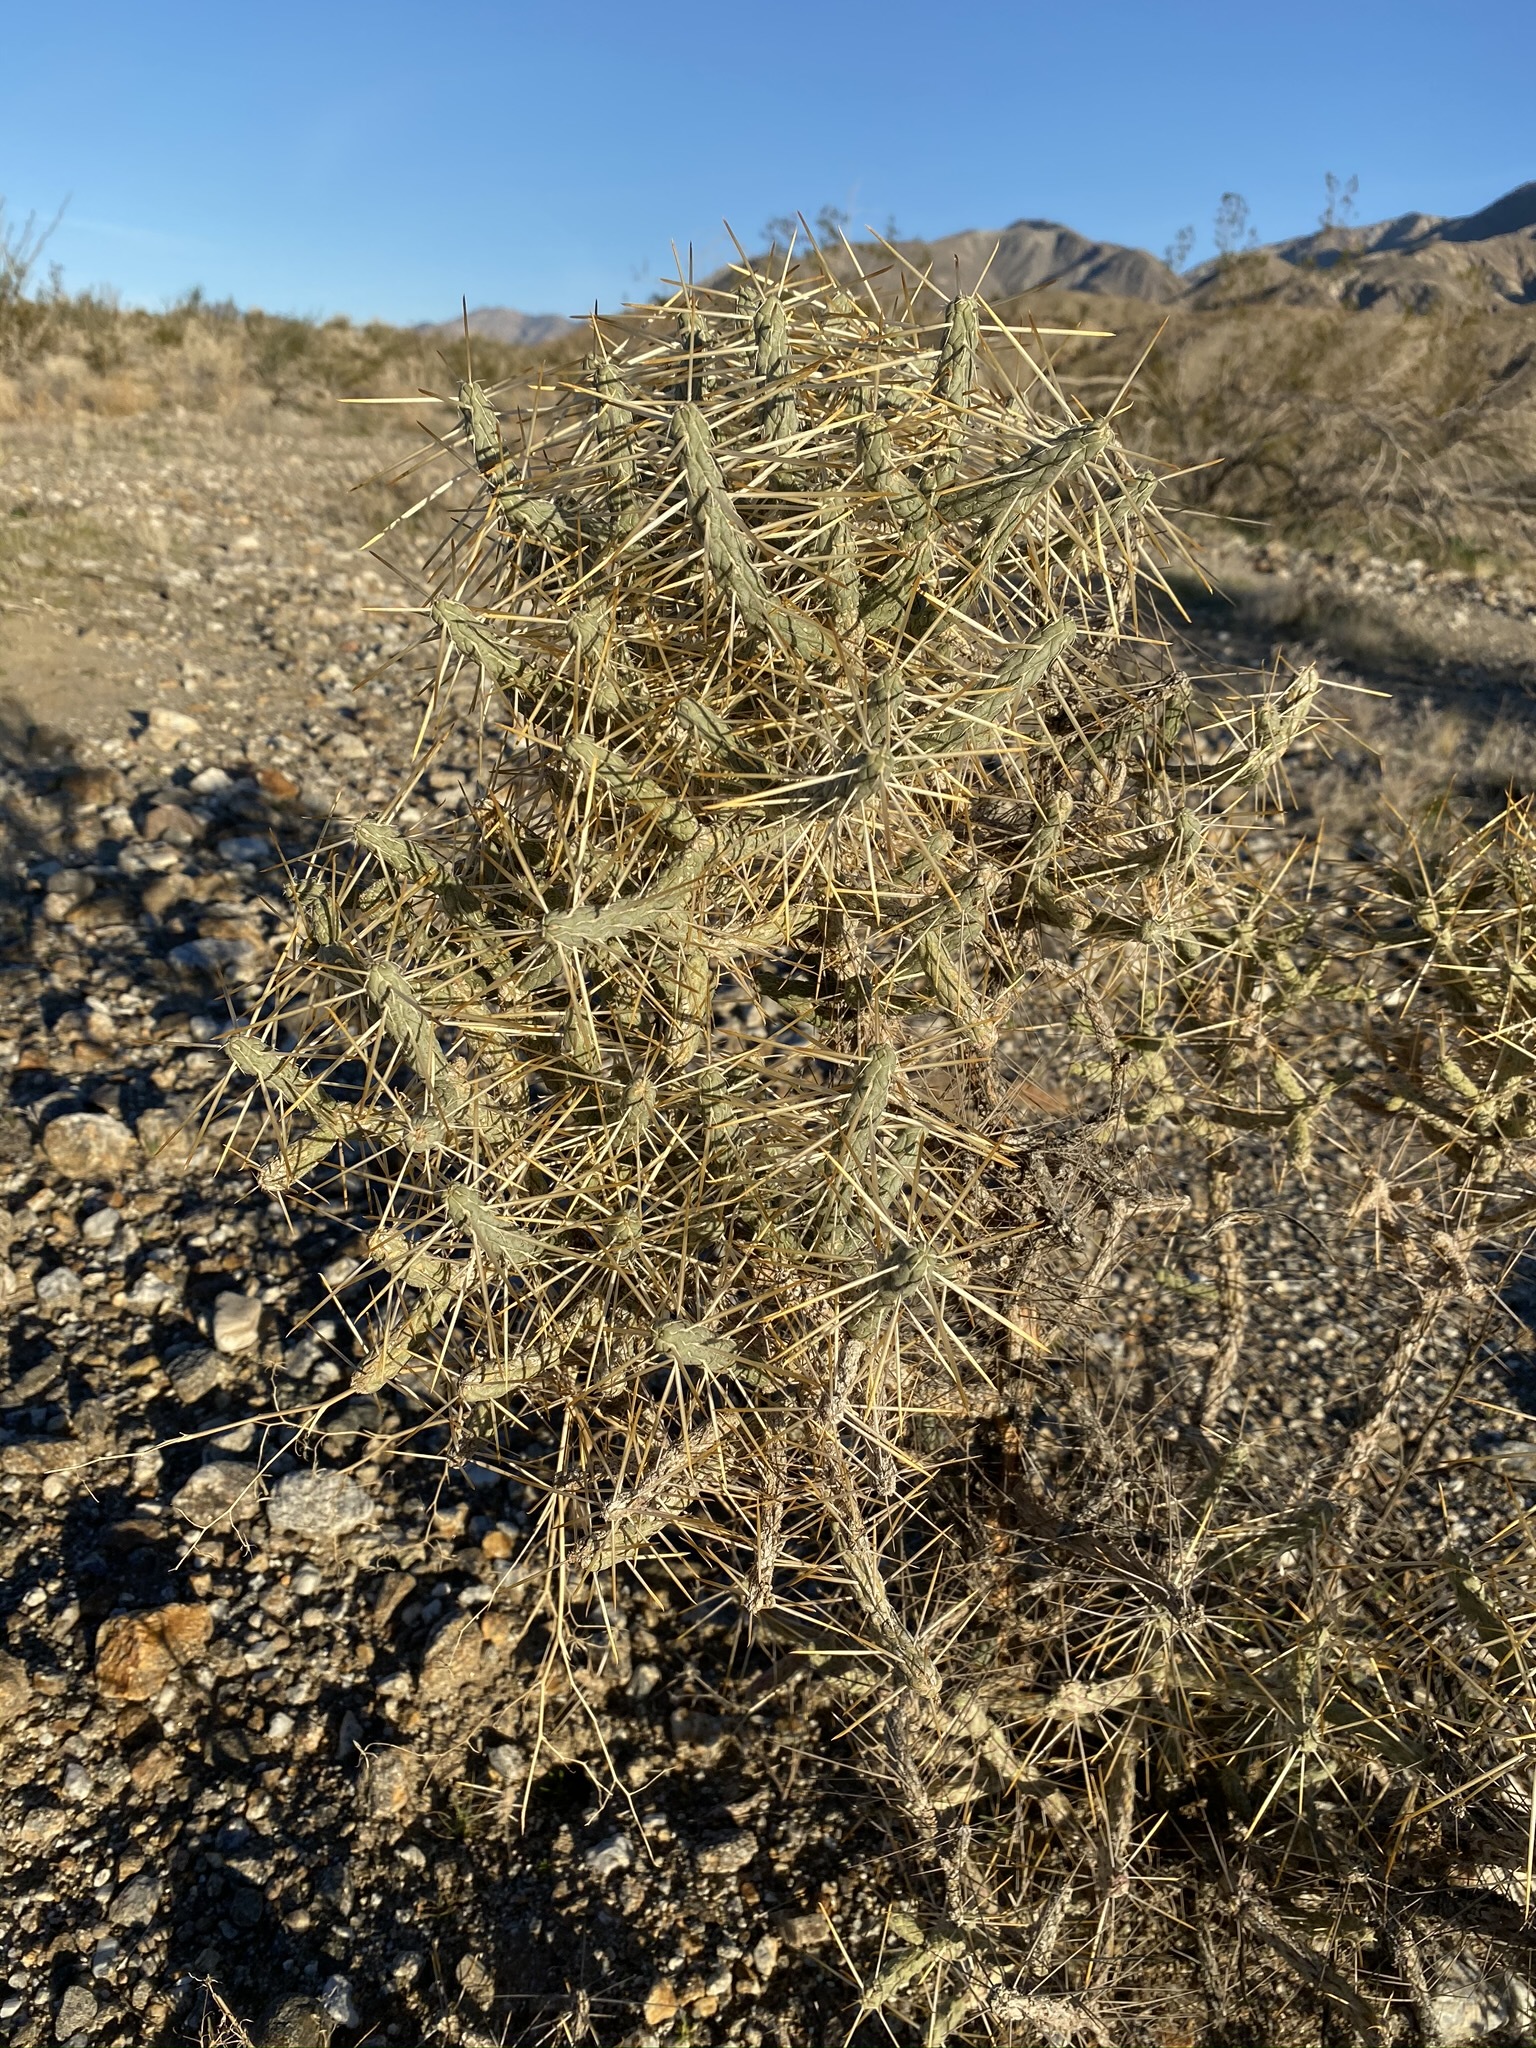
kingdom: Plantae
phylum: Tracheophyta
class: Magnoliopsida
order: Caryophyllales
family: Cactaceae
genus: Cylindropuntia
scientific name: Cylindropuntia ramosissima
